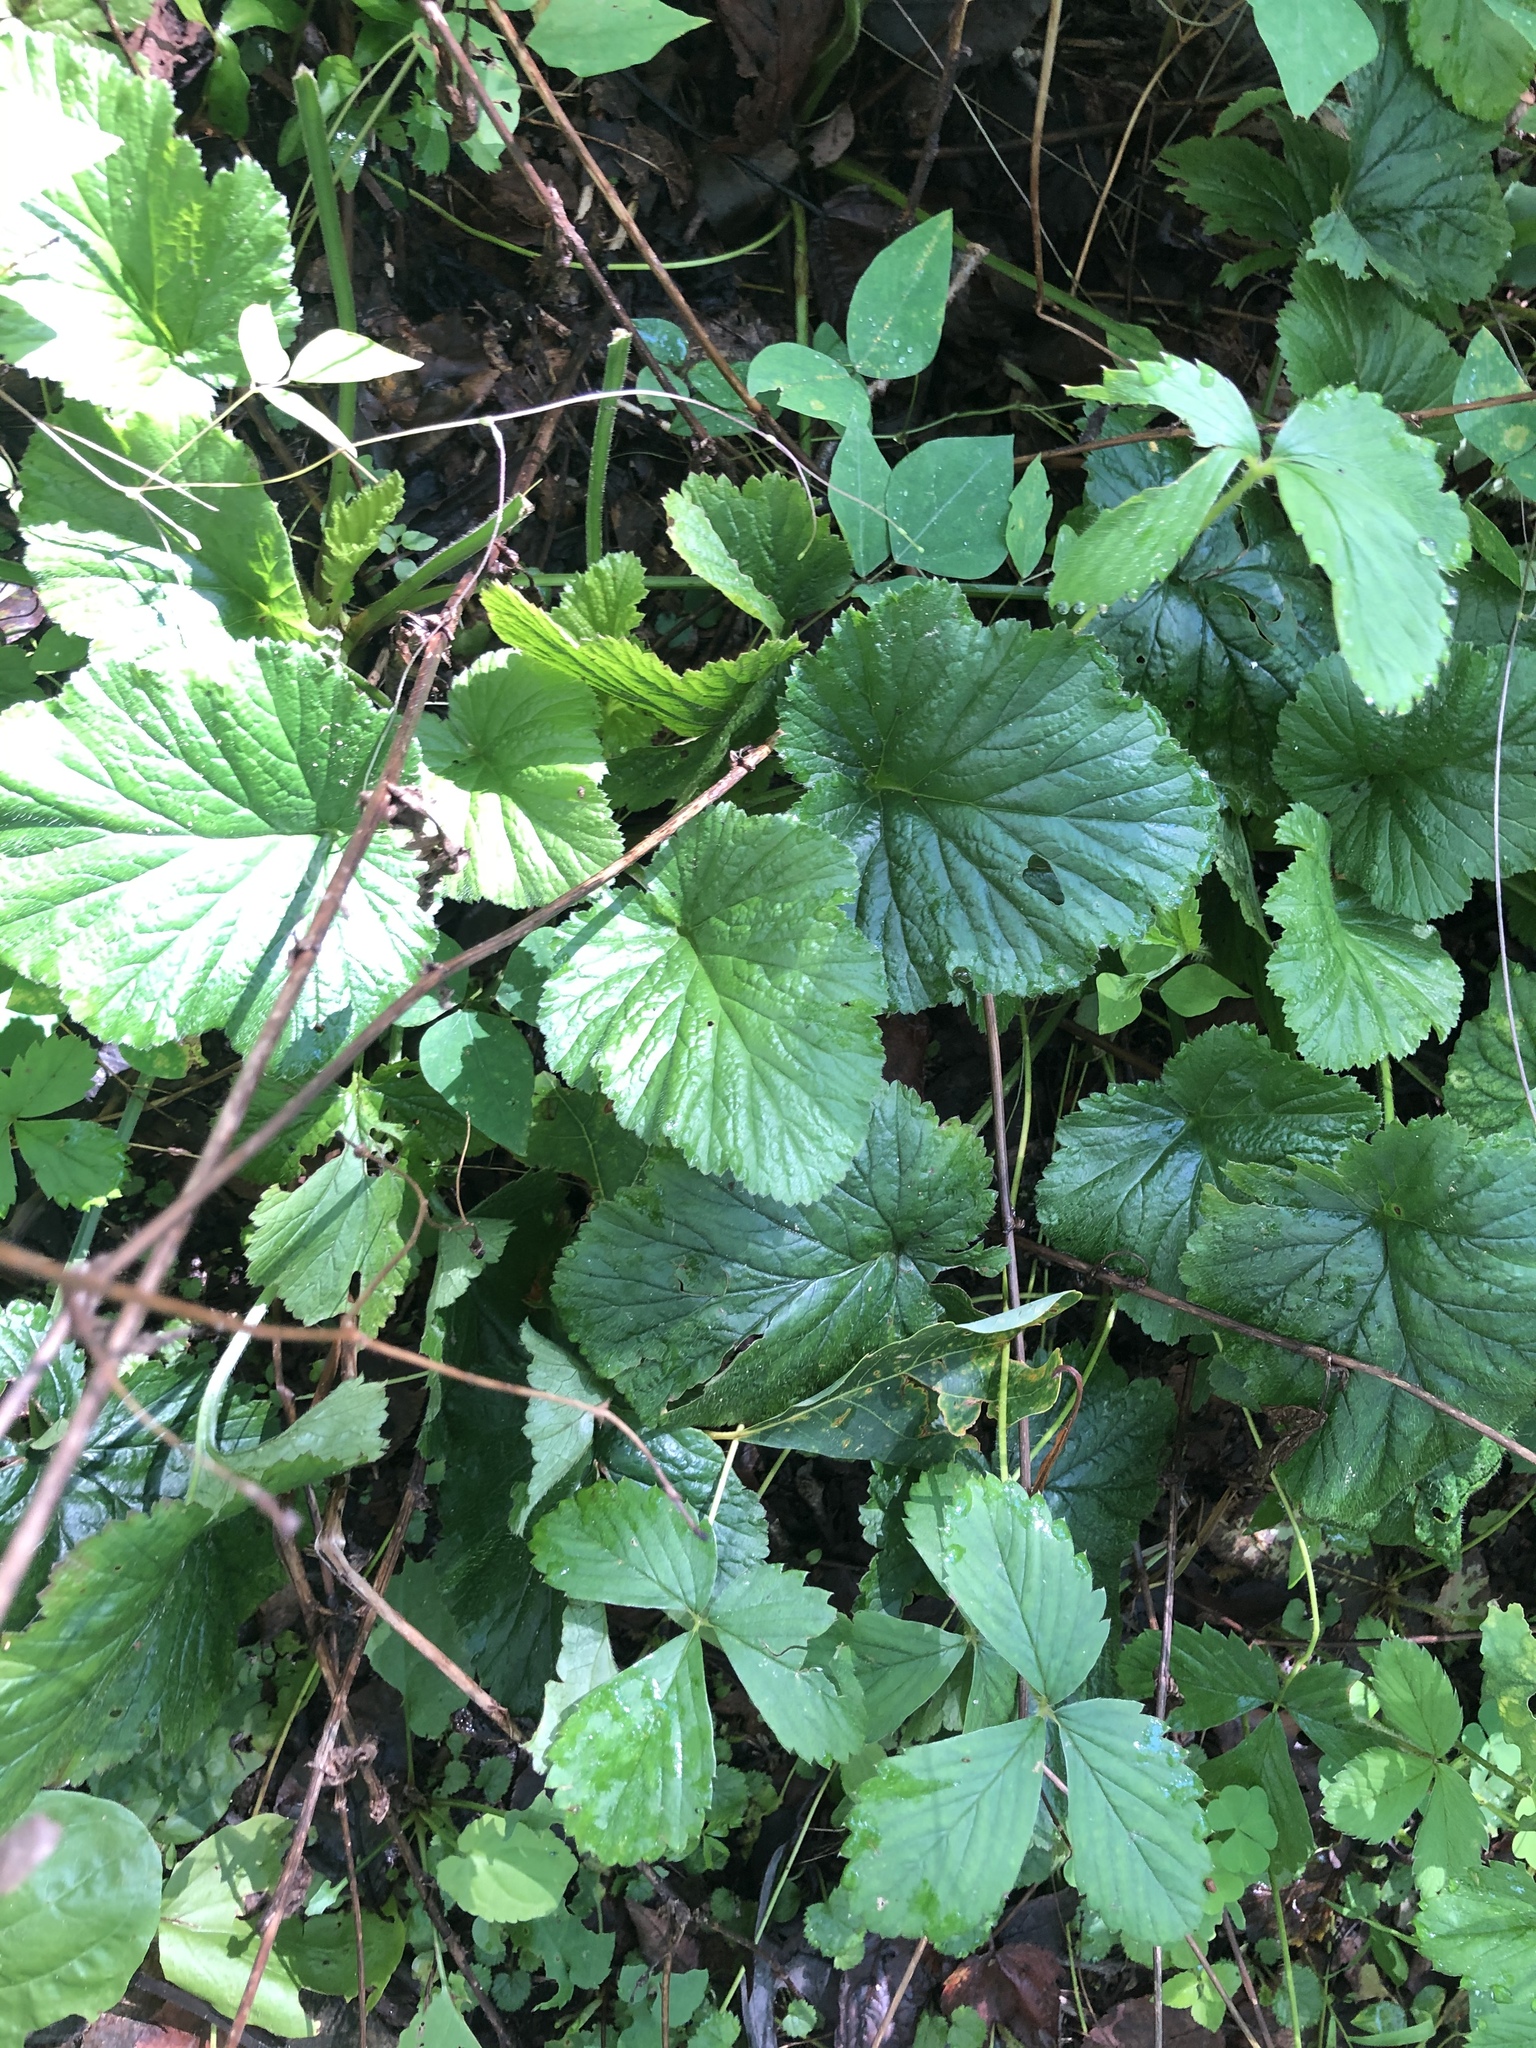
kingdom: Plantae
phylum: Tracheophyta
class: Magnoliopsida
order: Rosales
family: Rosaceae
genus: Geum
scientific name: Geum canadense
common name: White avens
